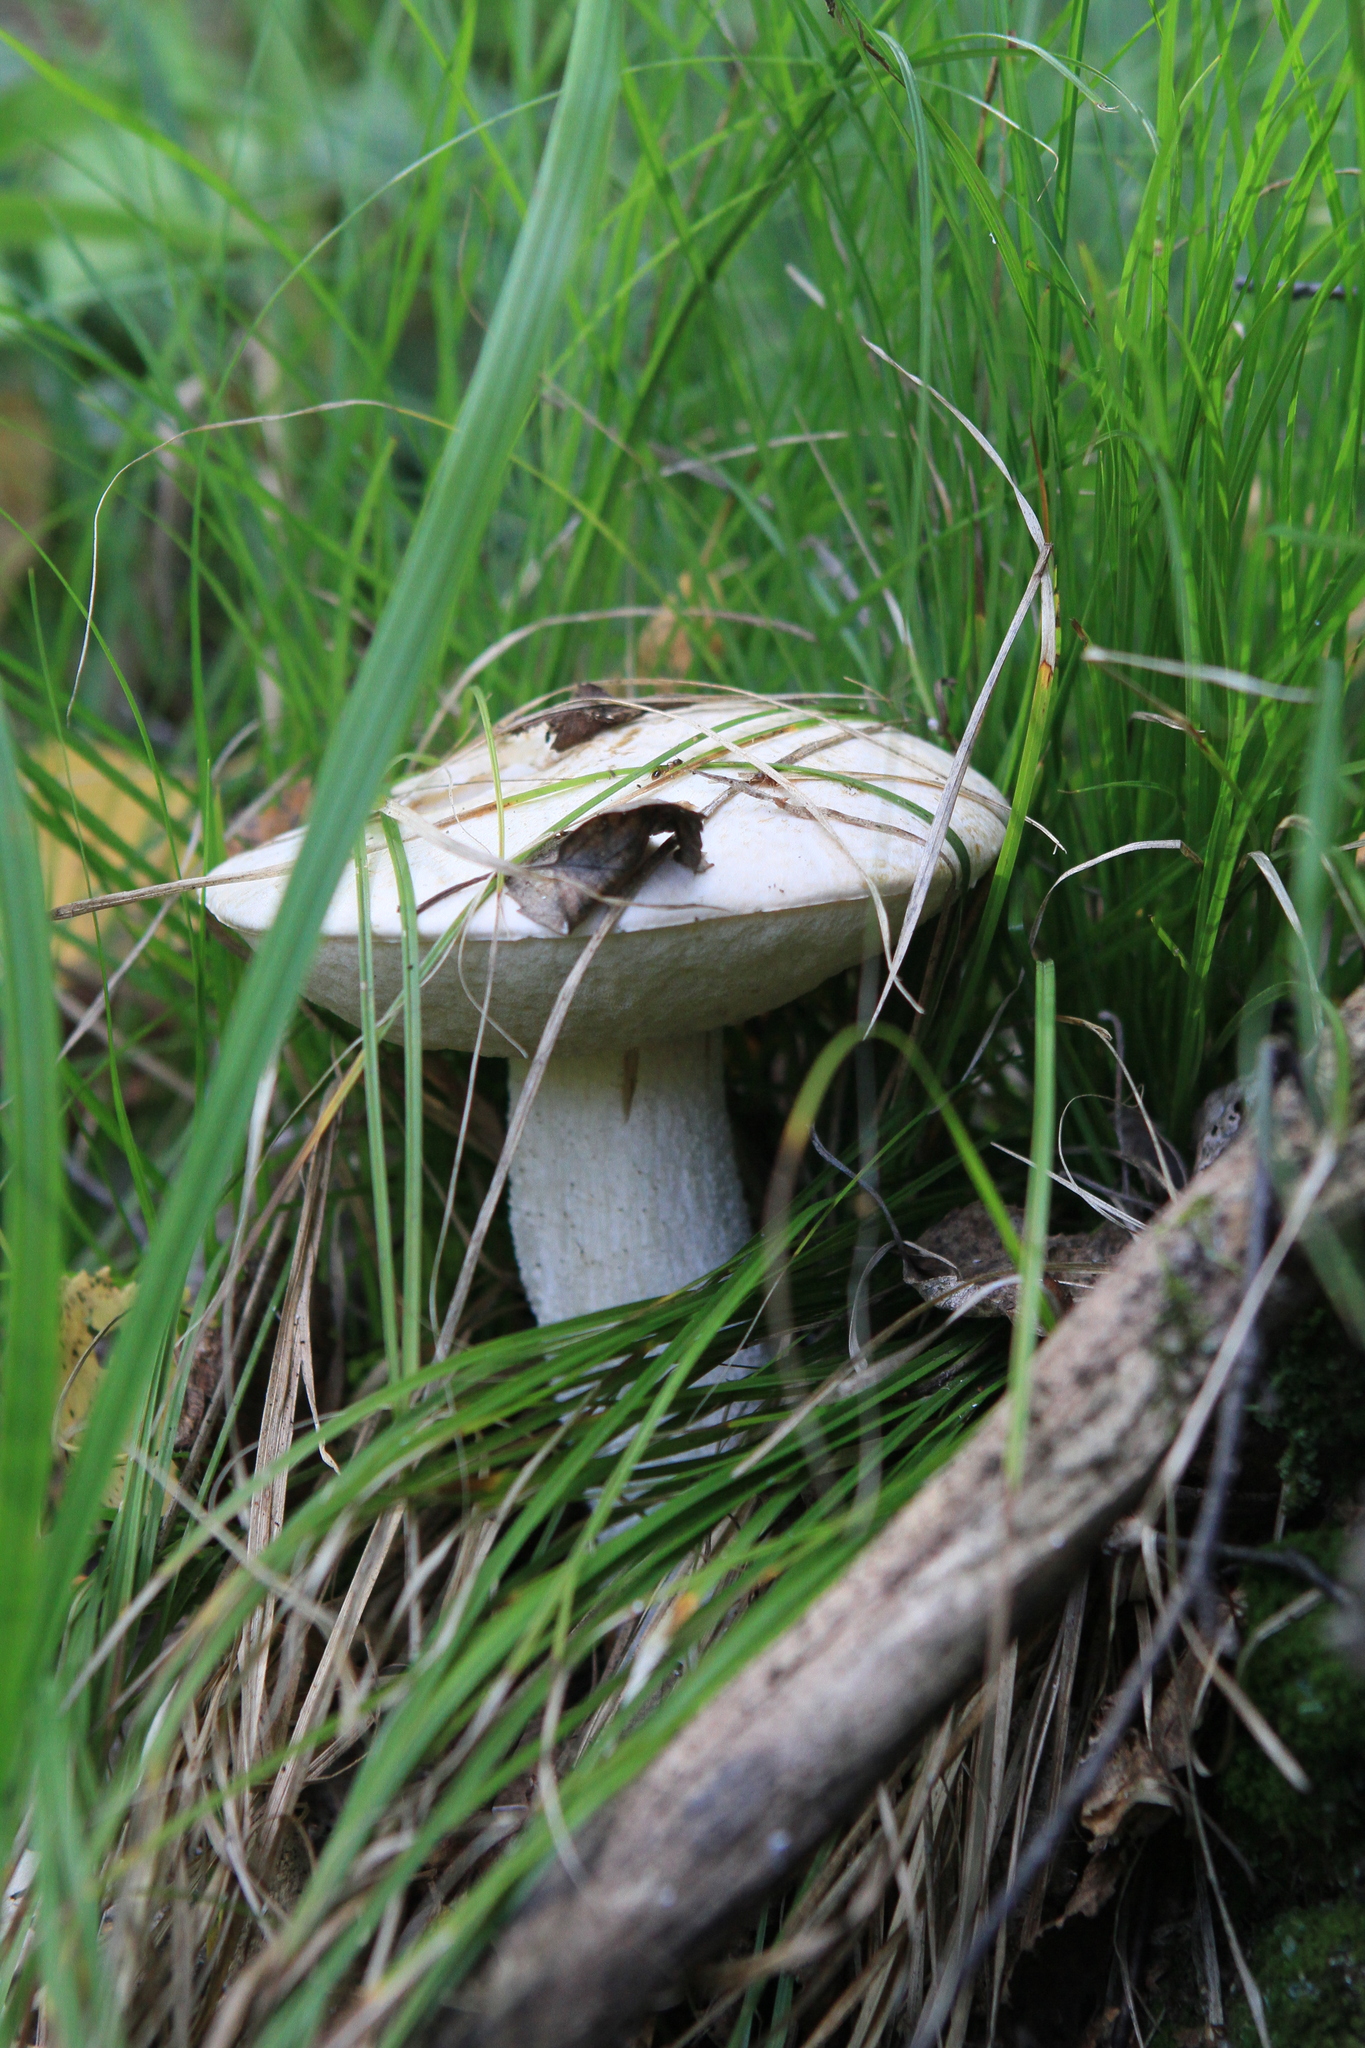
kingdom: Fungi
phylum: Basidiomycota
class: Agaricomycetes
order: Boletales
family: Boletaceae
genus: Leccinum
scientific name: Leccinum versipelle
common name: Orange birch bolete
